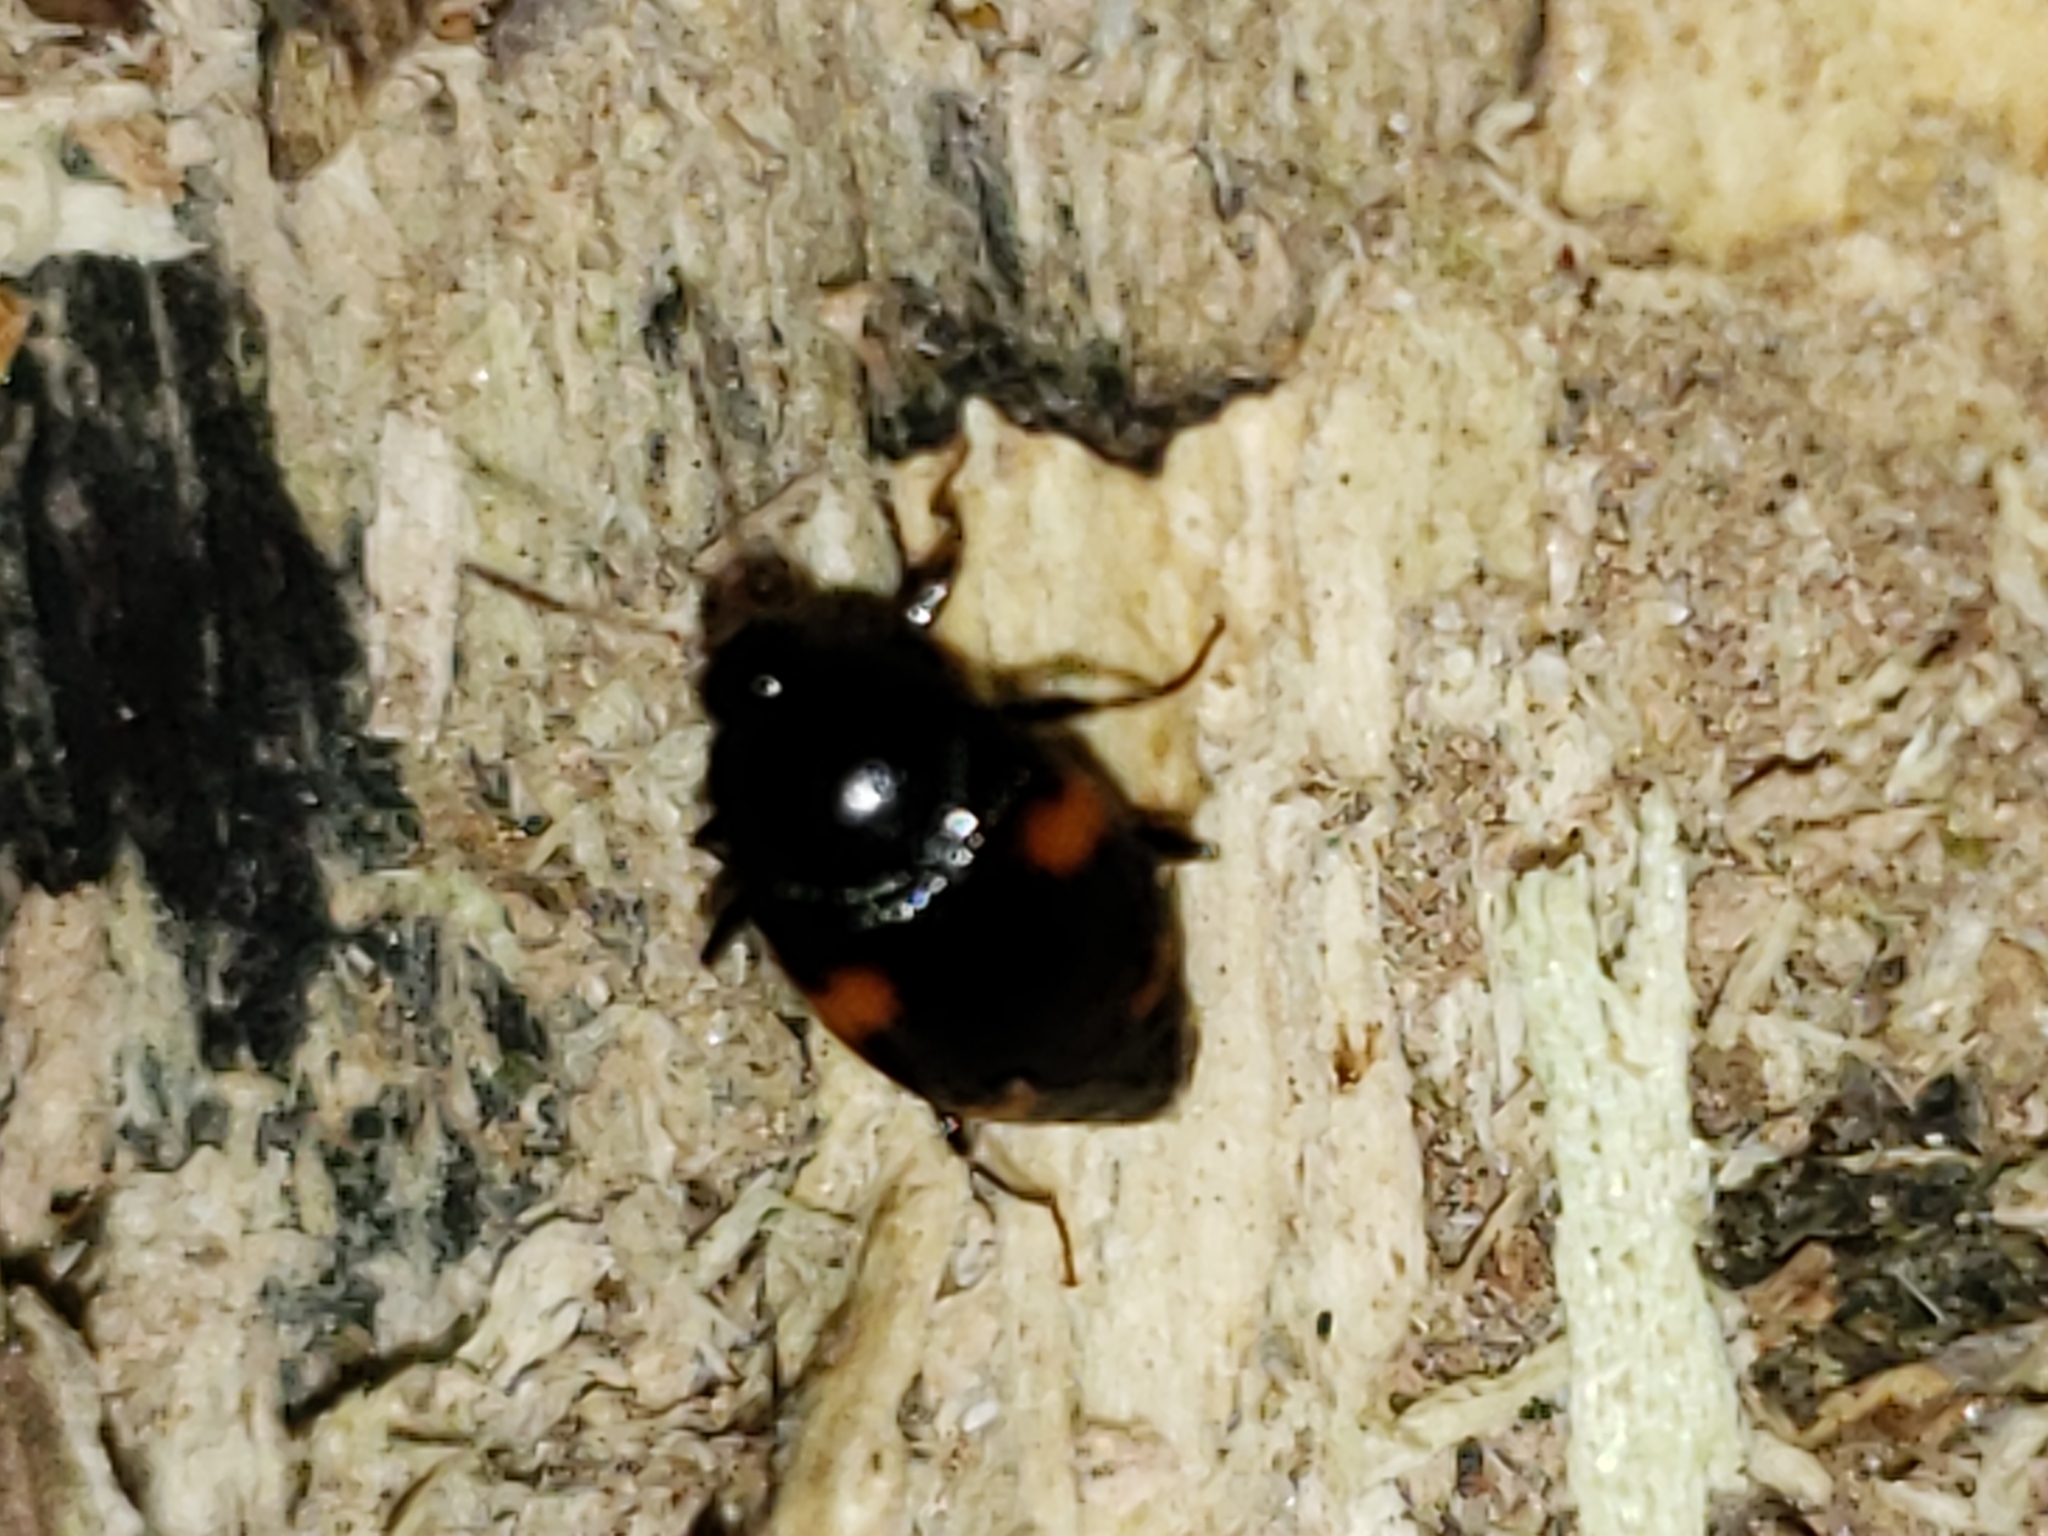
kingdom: Animalia
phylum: Arthropoda
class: Insecta
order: Coleoptera
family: Staphylinidae
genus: Scaphidium
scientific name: Scaphidium quadriguttatum
